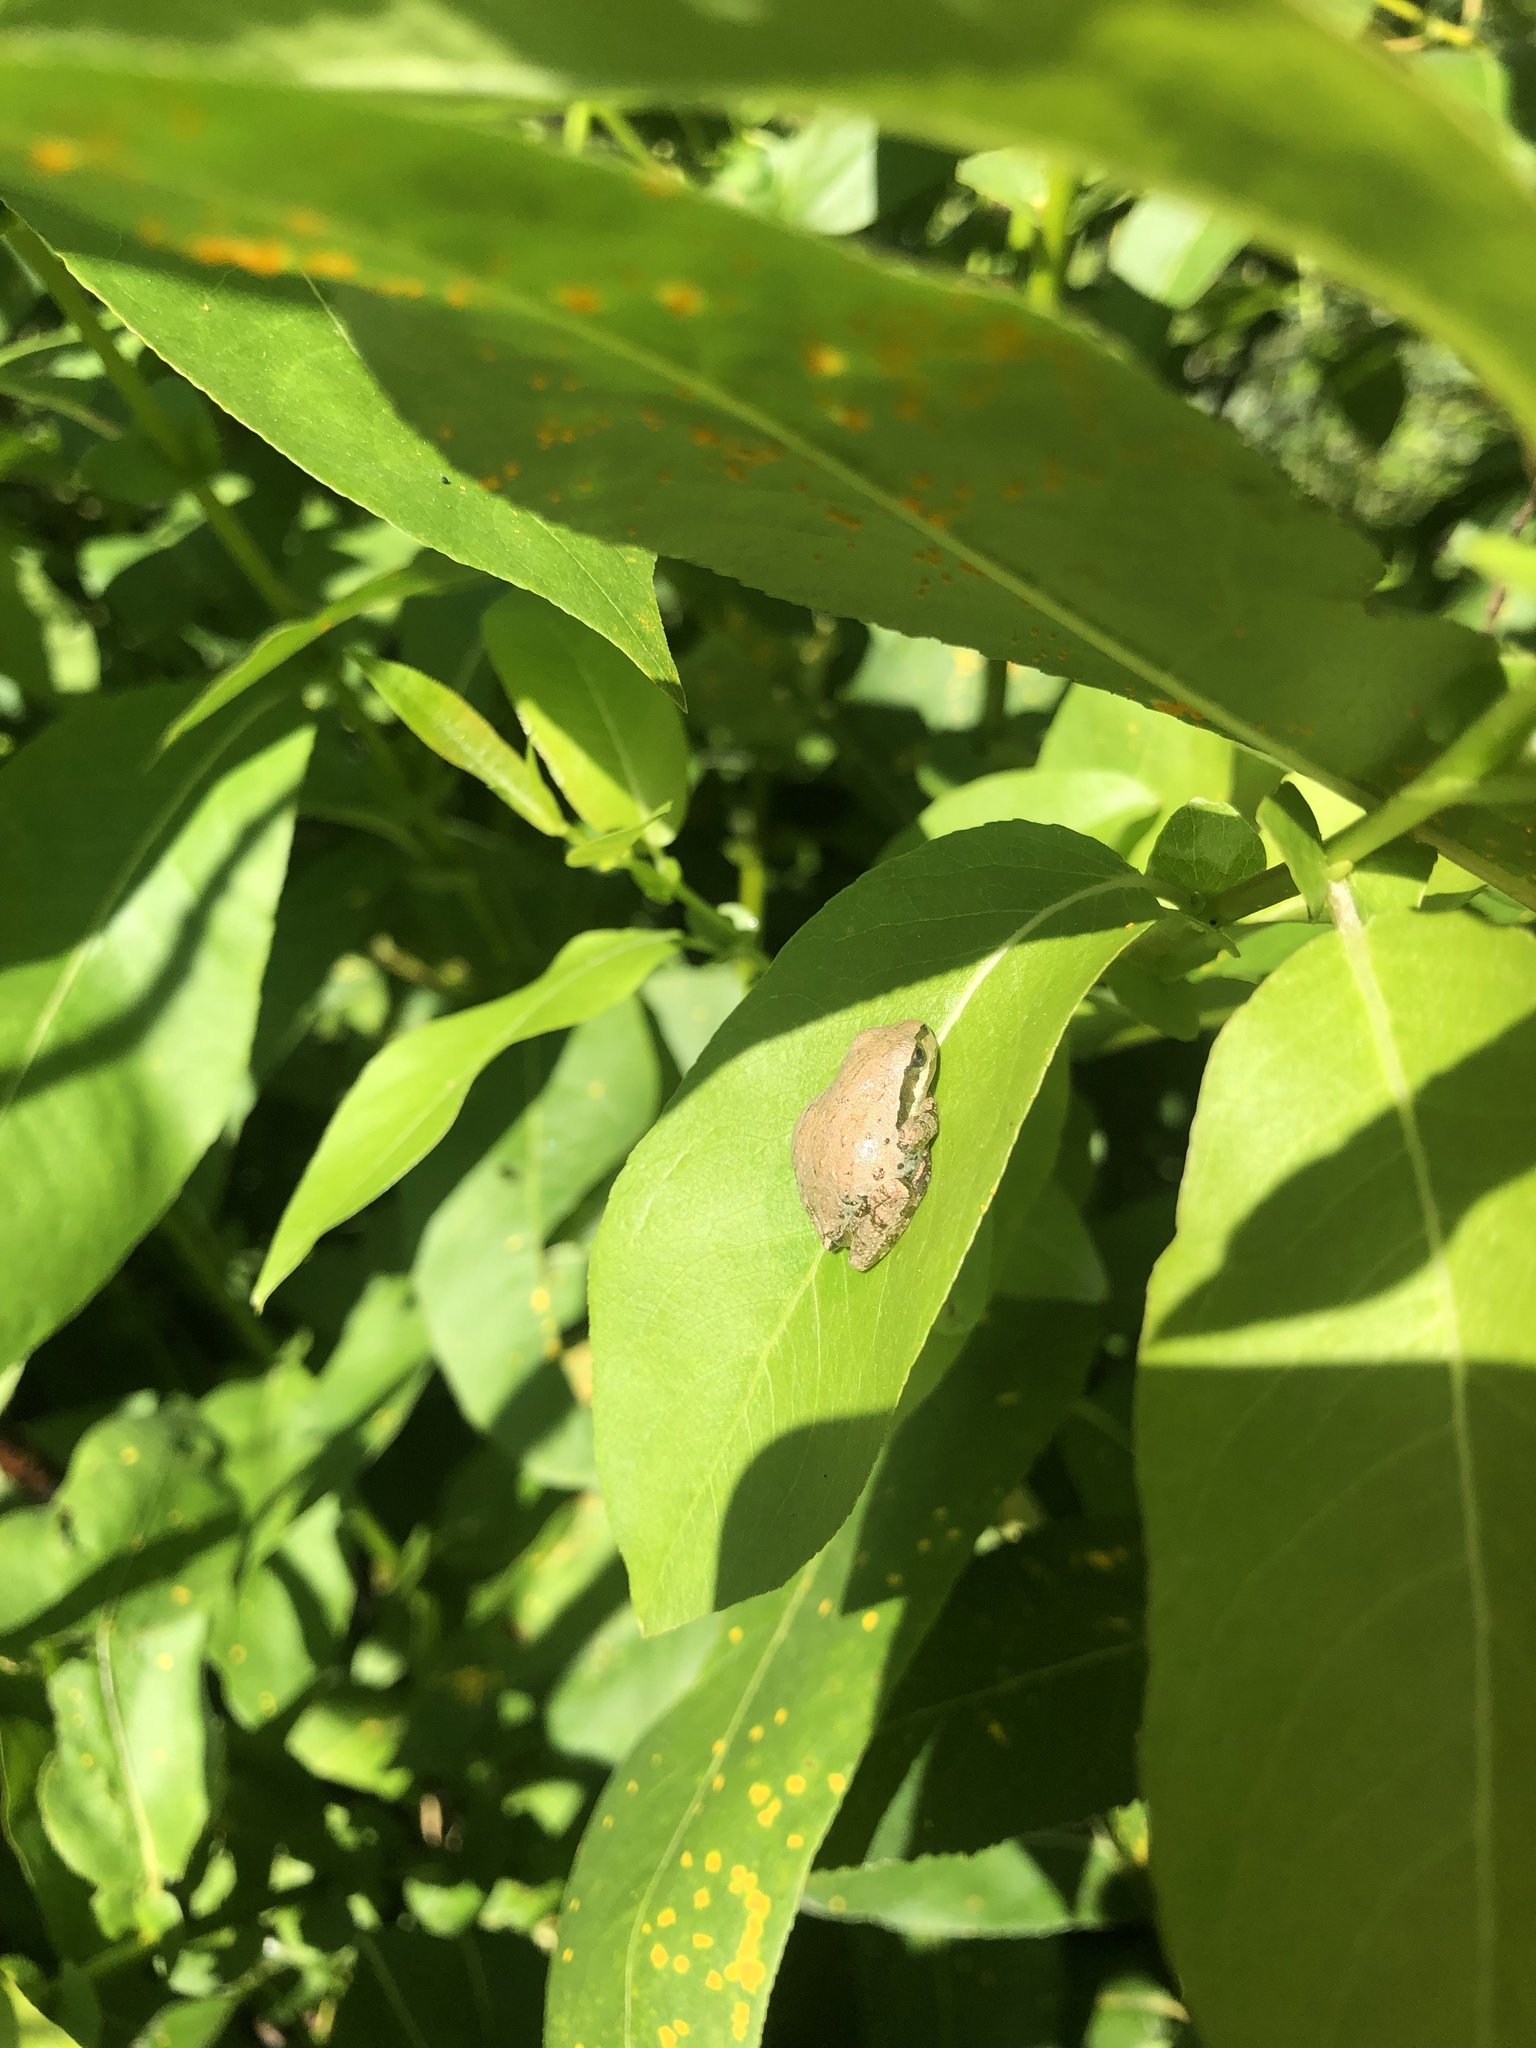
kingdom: Animalia
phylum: Chordata
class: Amphibia
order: Anura
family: Hylidae
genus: Pseudacris
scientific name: Pseudacris regilla
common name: Pacific chorus frog
